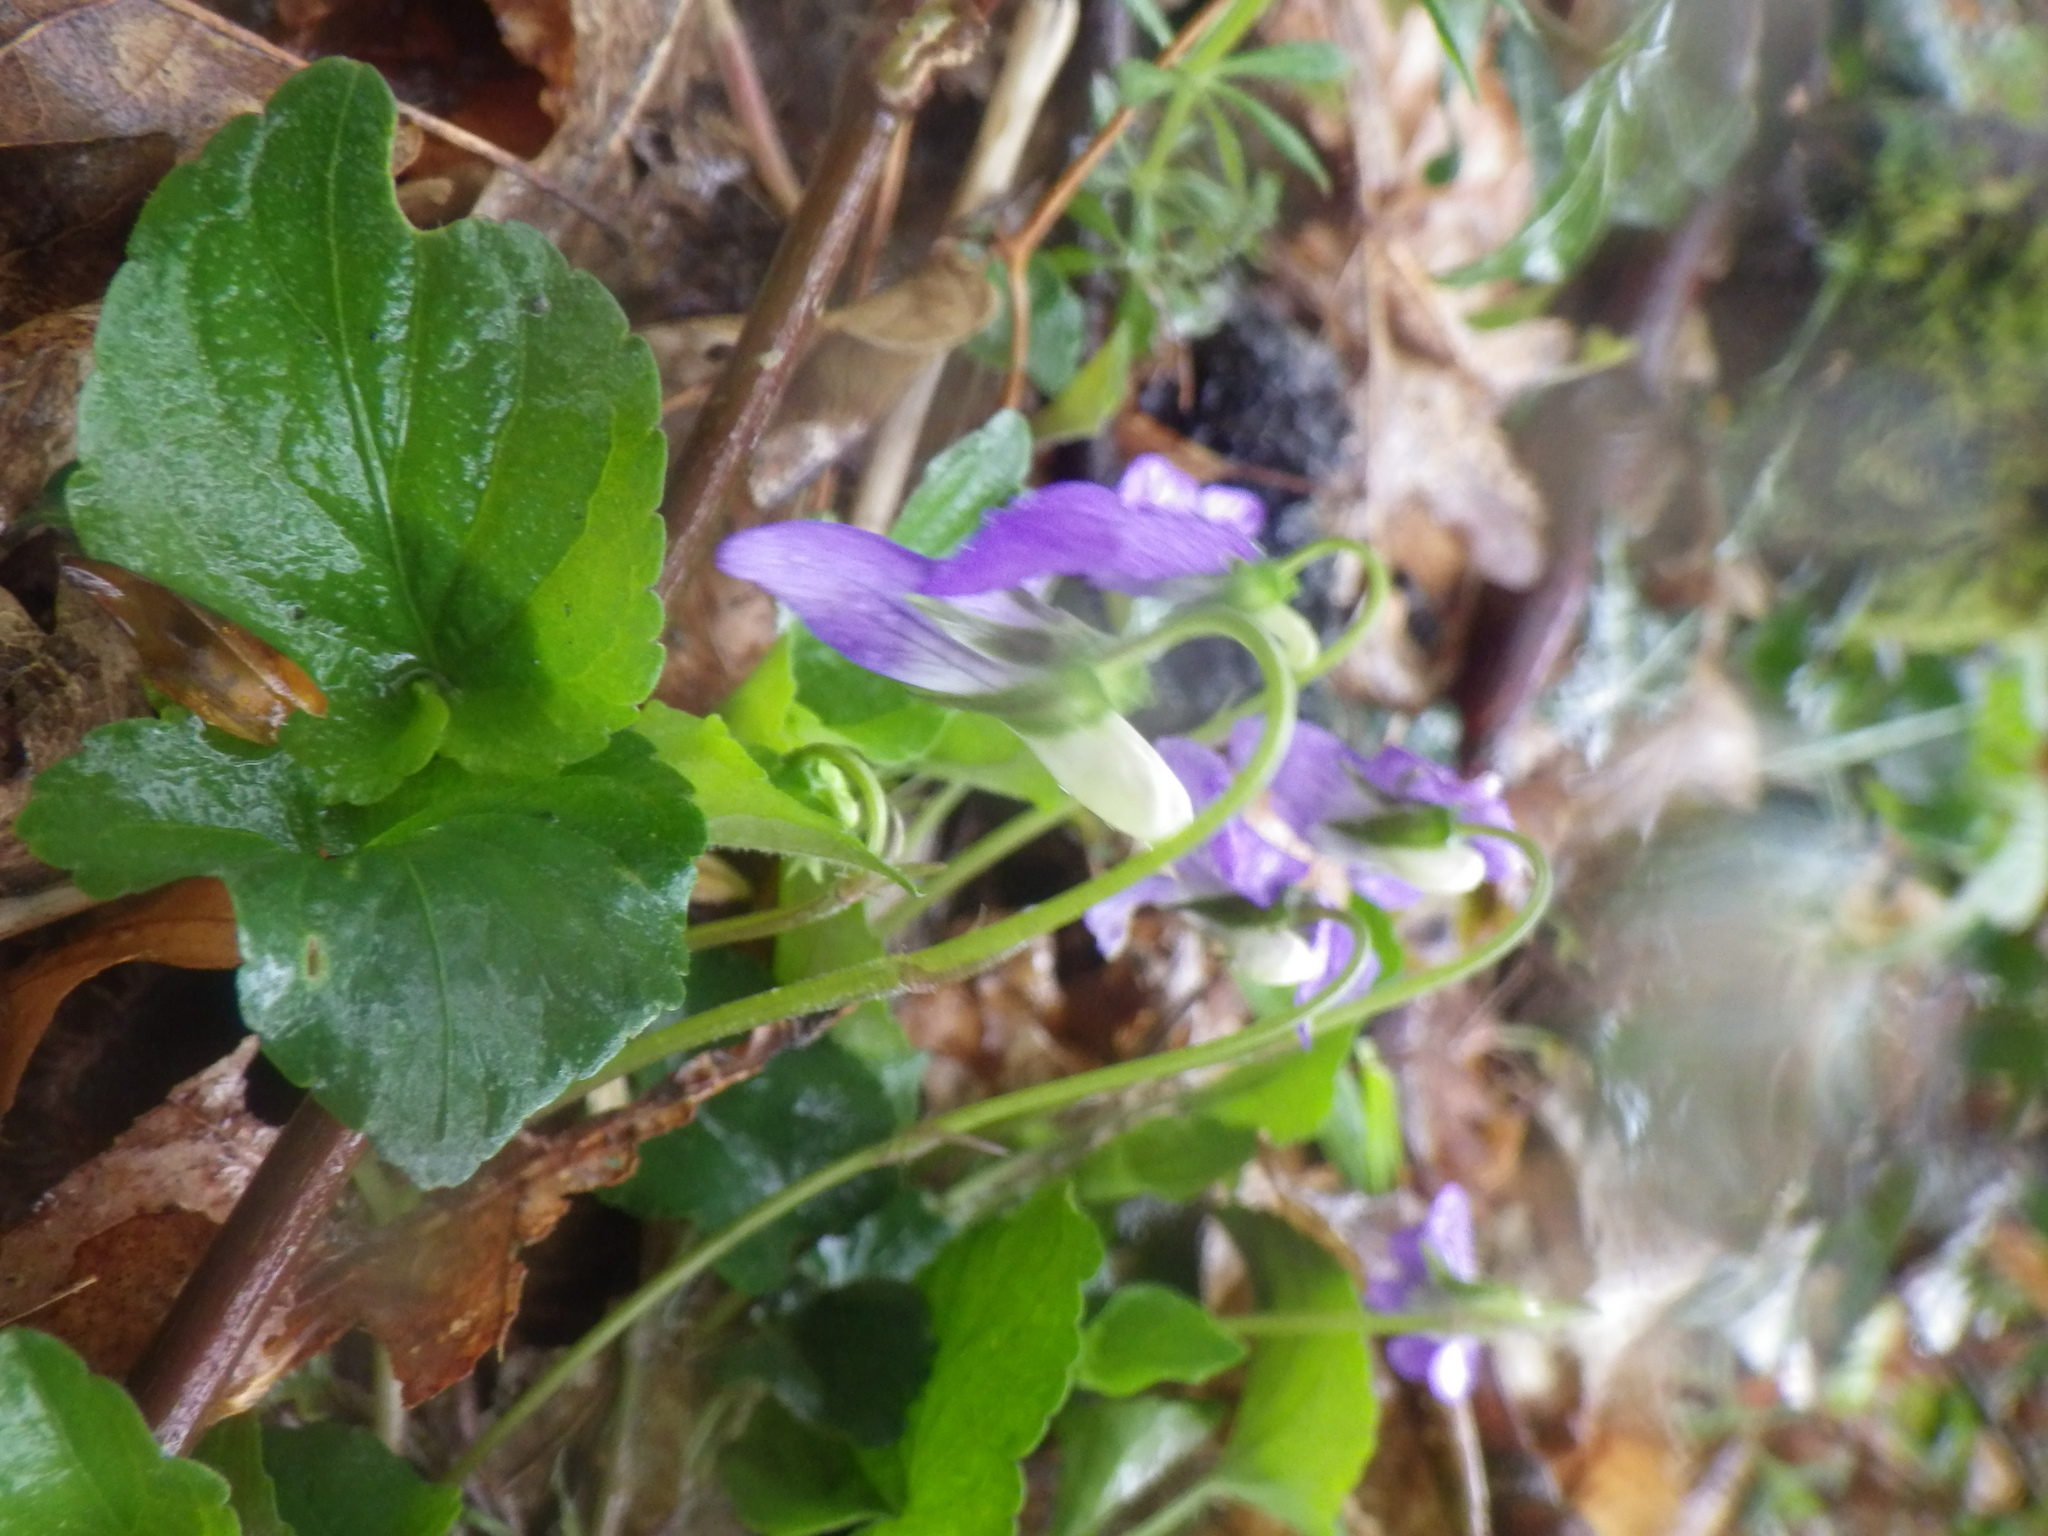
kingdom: Plantae
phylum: Tracheophyta
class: Magnoliopsida
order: Malpighiales
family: Violaceae
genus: Viola
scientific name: Viola riviniana
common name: Common dog-violet
